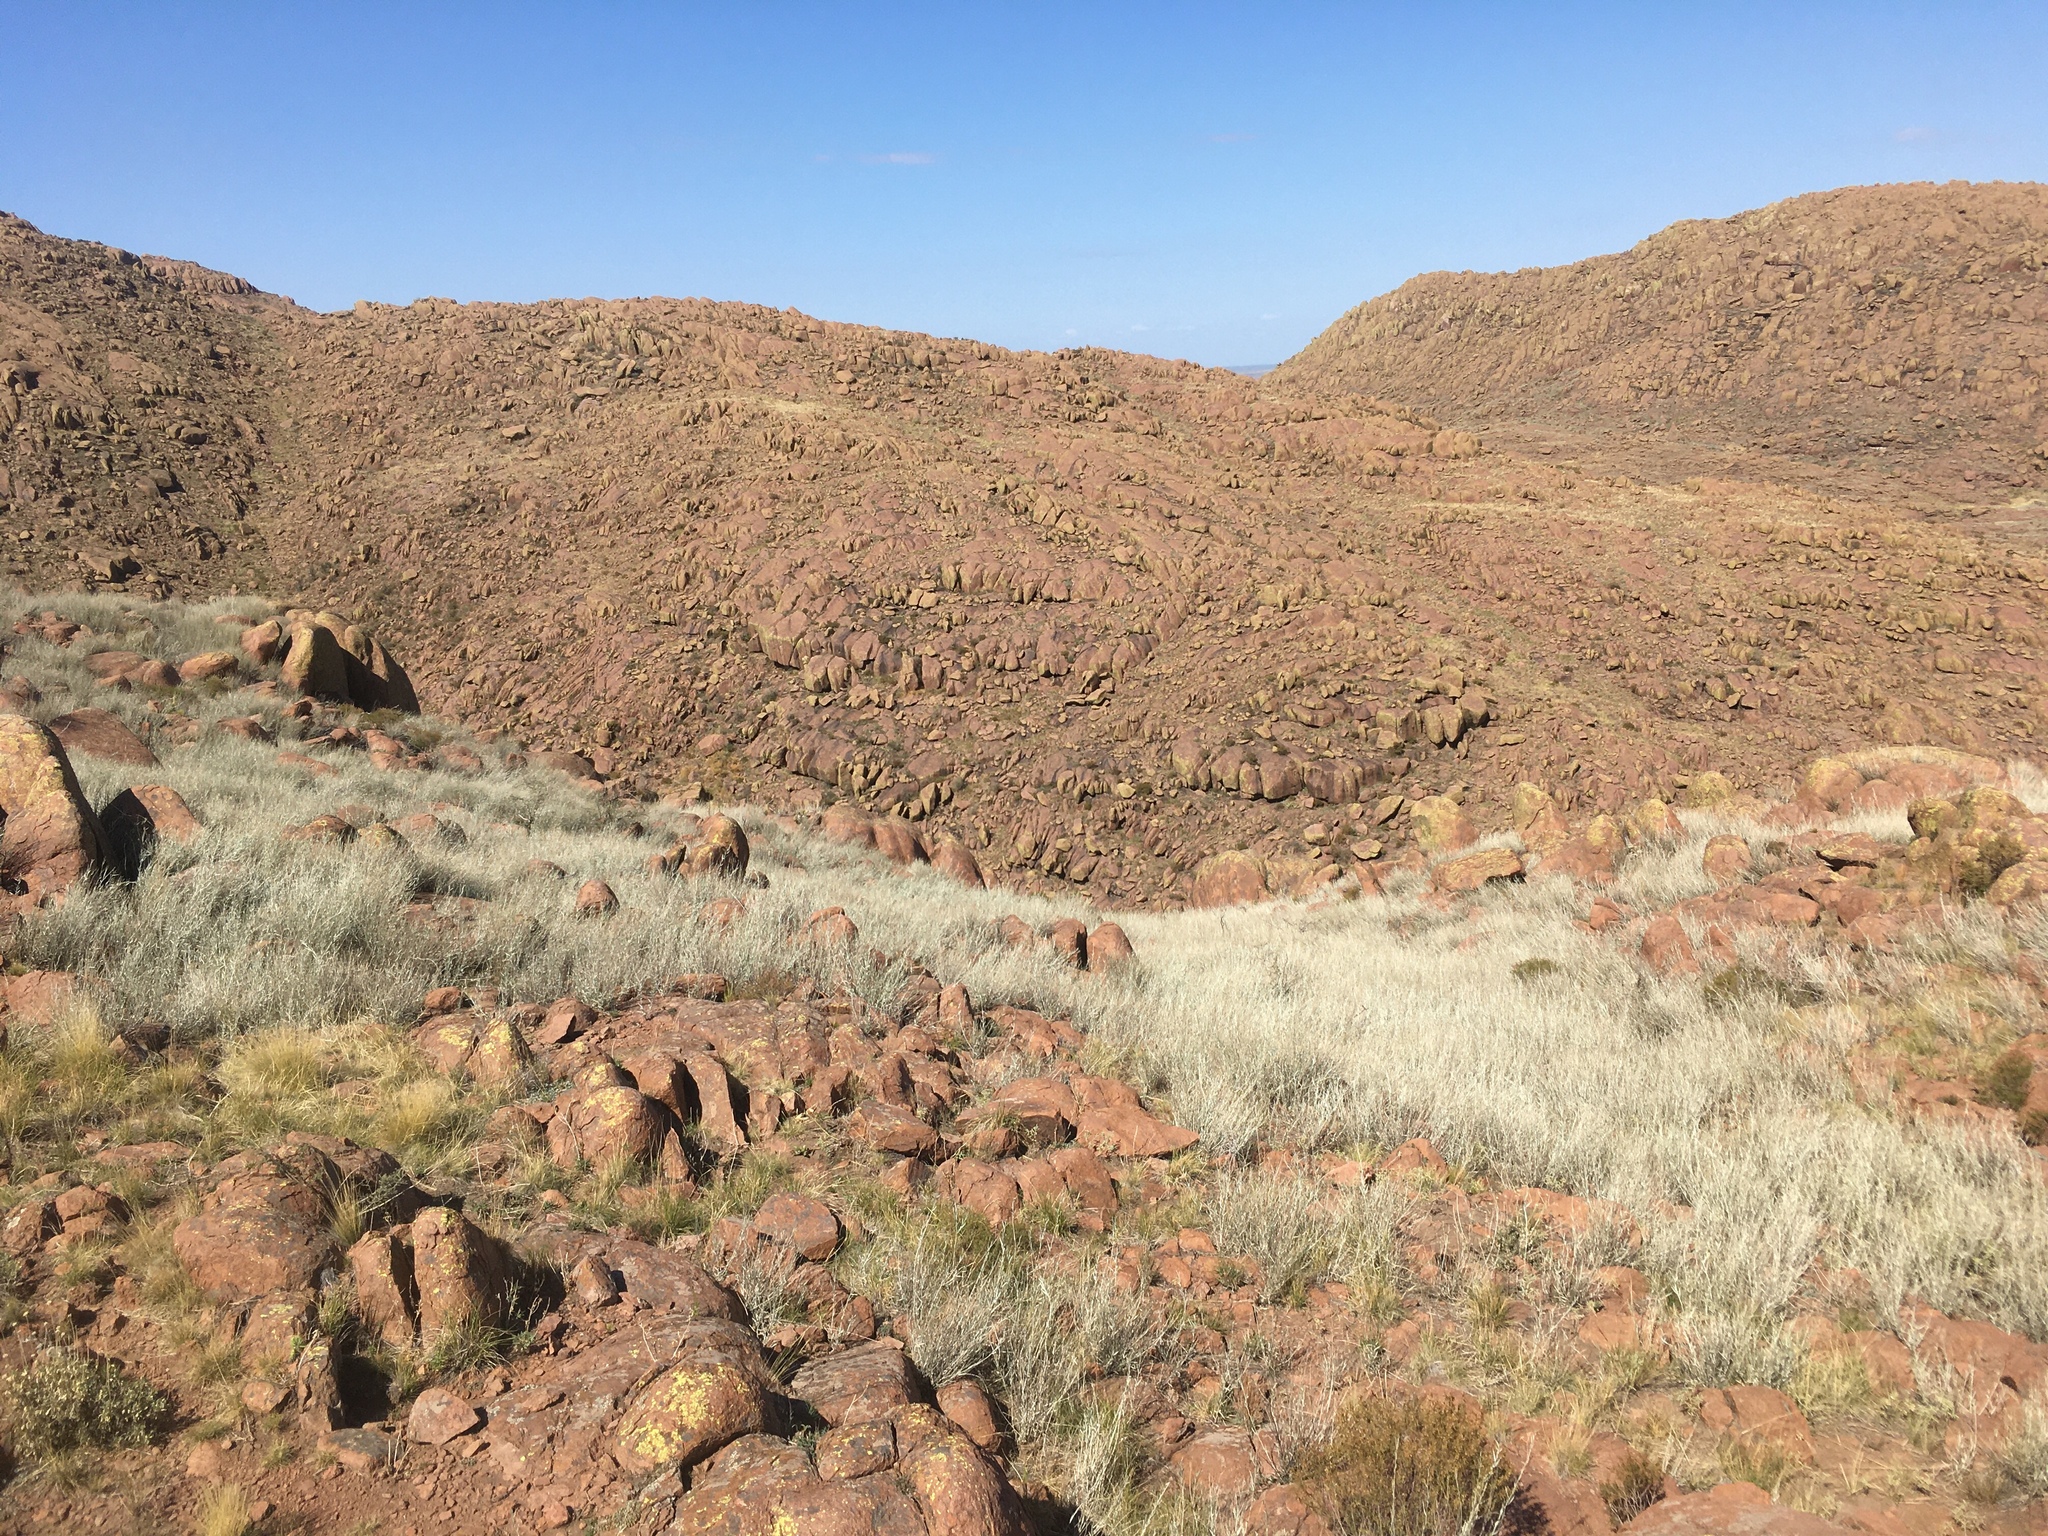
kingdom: Plantae
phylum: Tracheophyta
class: Magnoliopsida
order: Asterales
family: Asteraceae
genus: Hyalis
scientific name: Hyalis argentea
